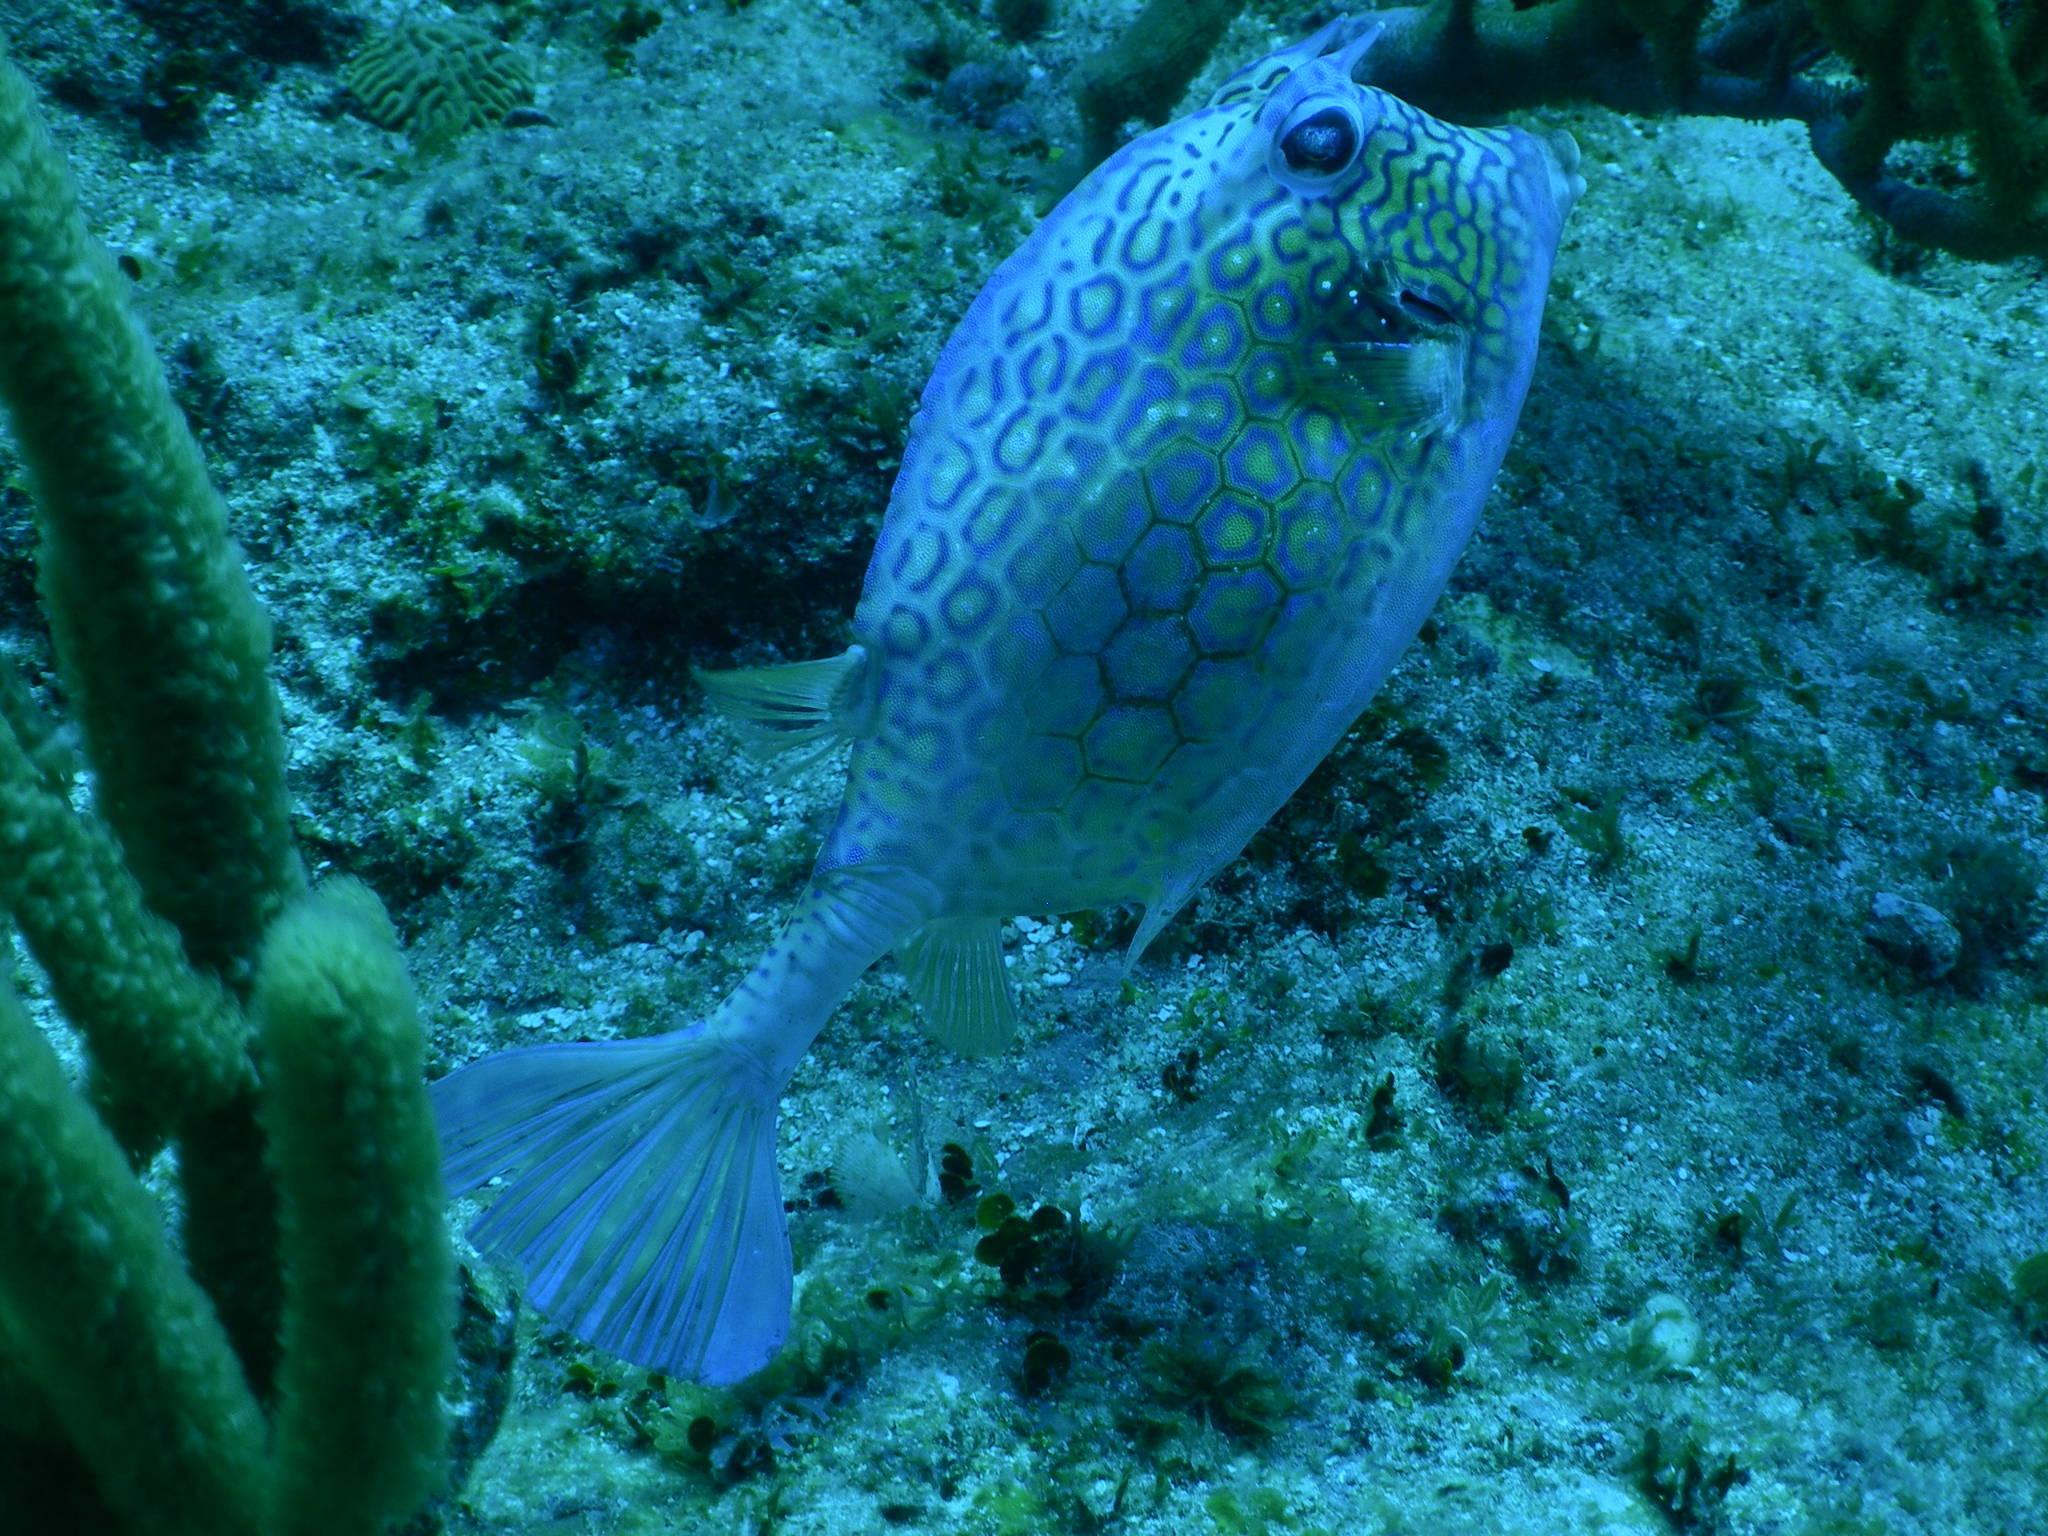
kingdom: Animalia
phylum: Chordata
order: Tetraodontiformes
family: Ostraciidae
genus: Acanthostracion
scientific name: Acanthostracion polygonius
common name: Honeycomb cowfish
